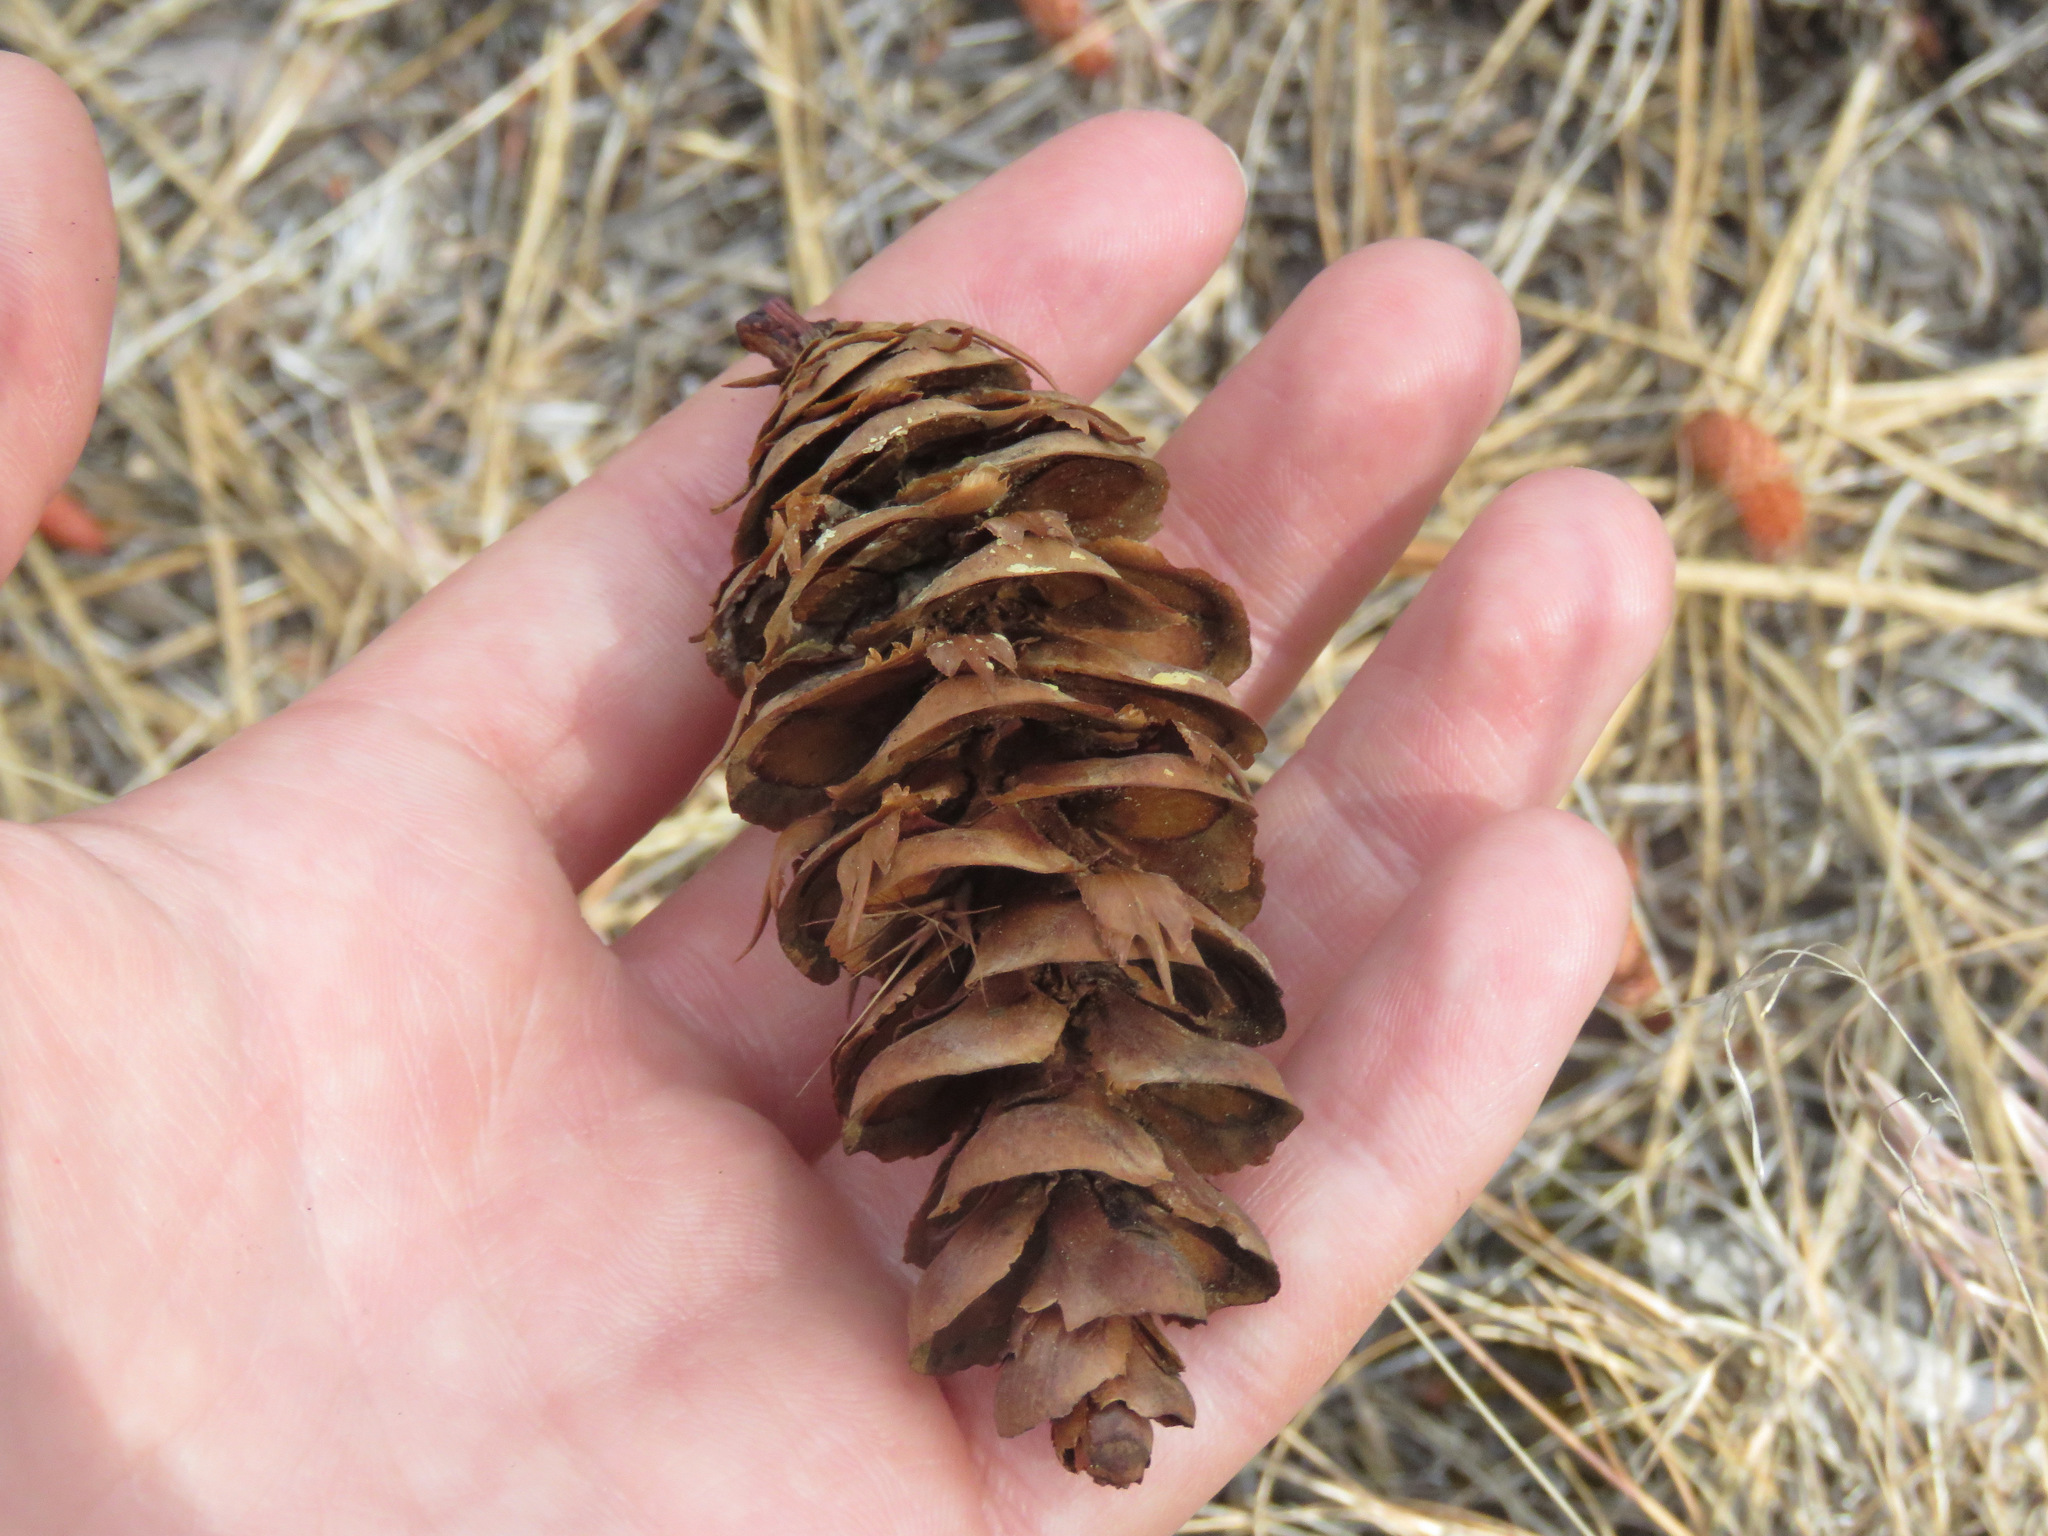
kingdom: Plantae
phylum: Tracheophyta
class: Pinopsida
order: Pinales
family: Pinaceae
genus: Pseudotsuga
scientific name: Pseudotsuga menziesii
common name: Douglas fir
